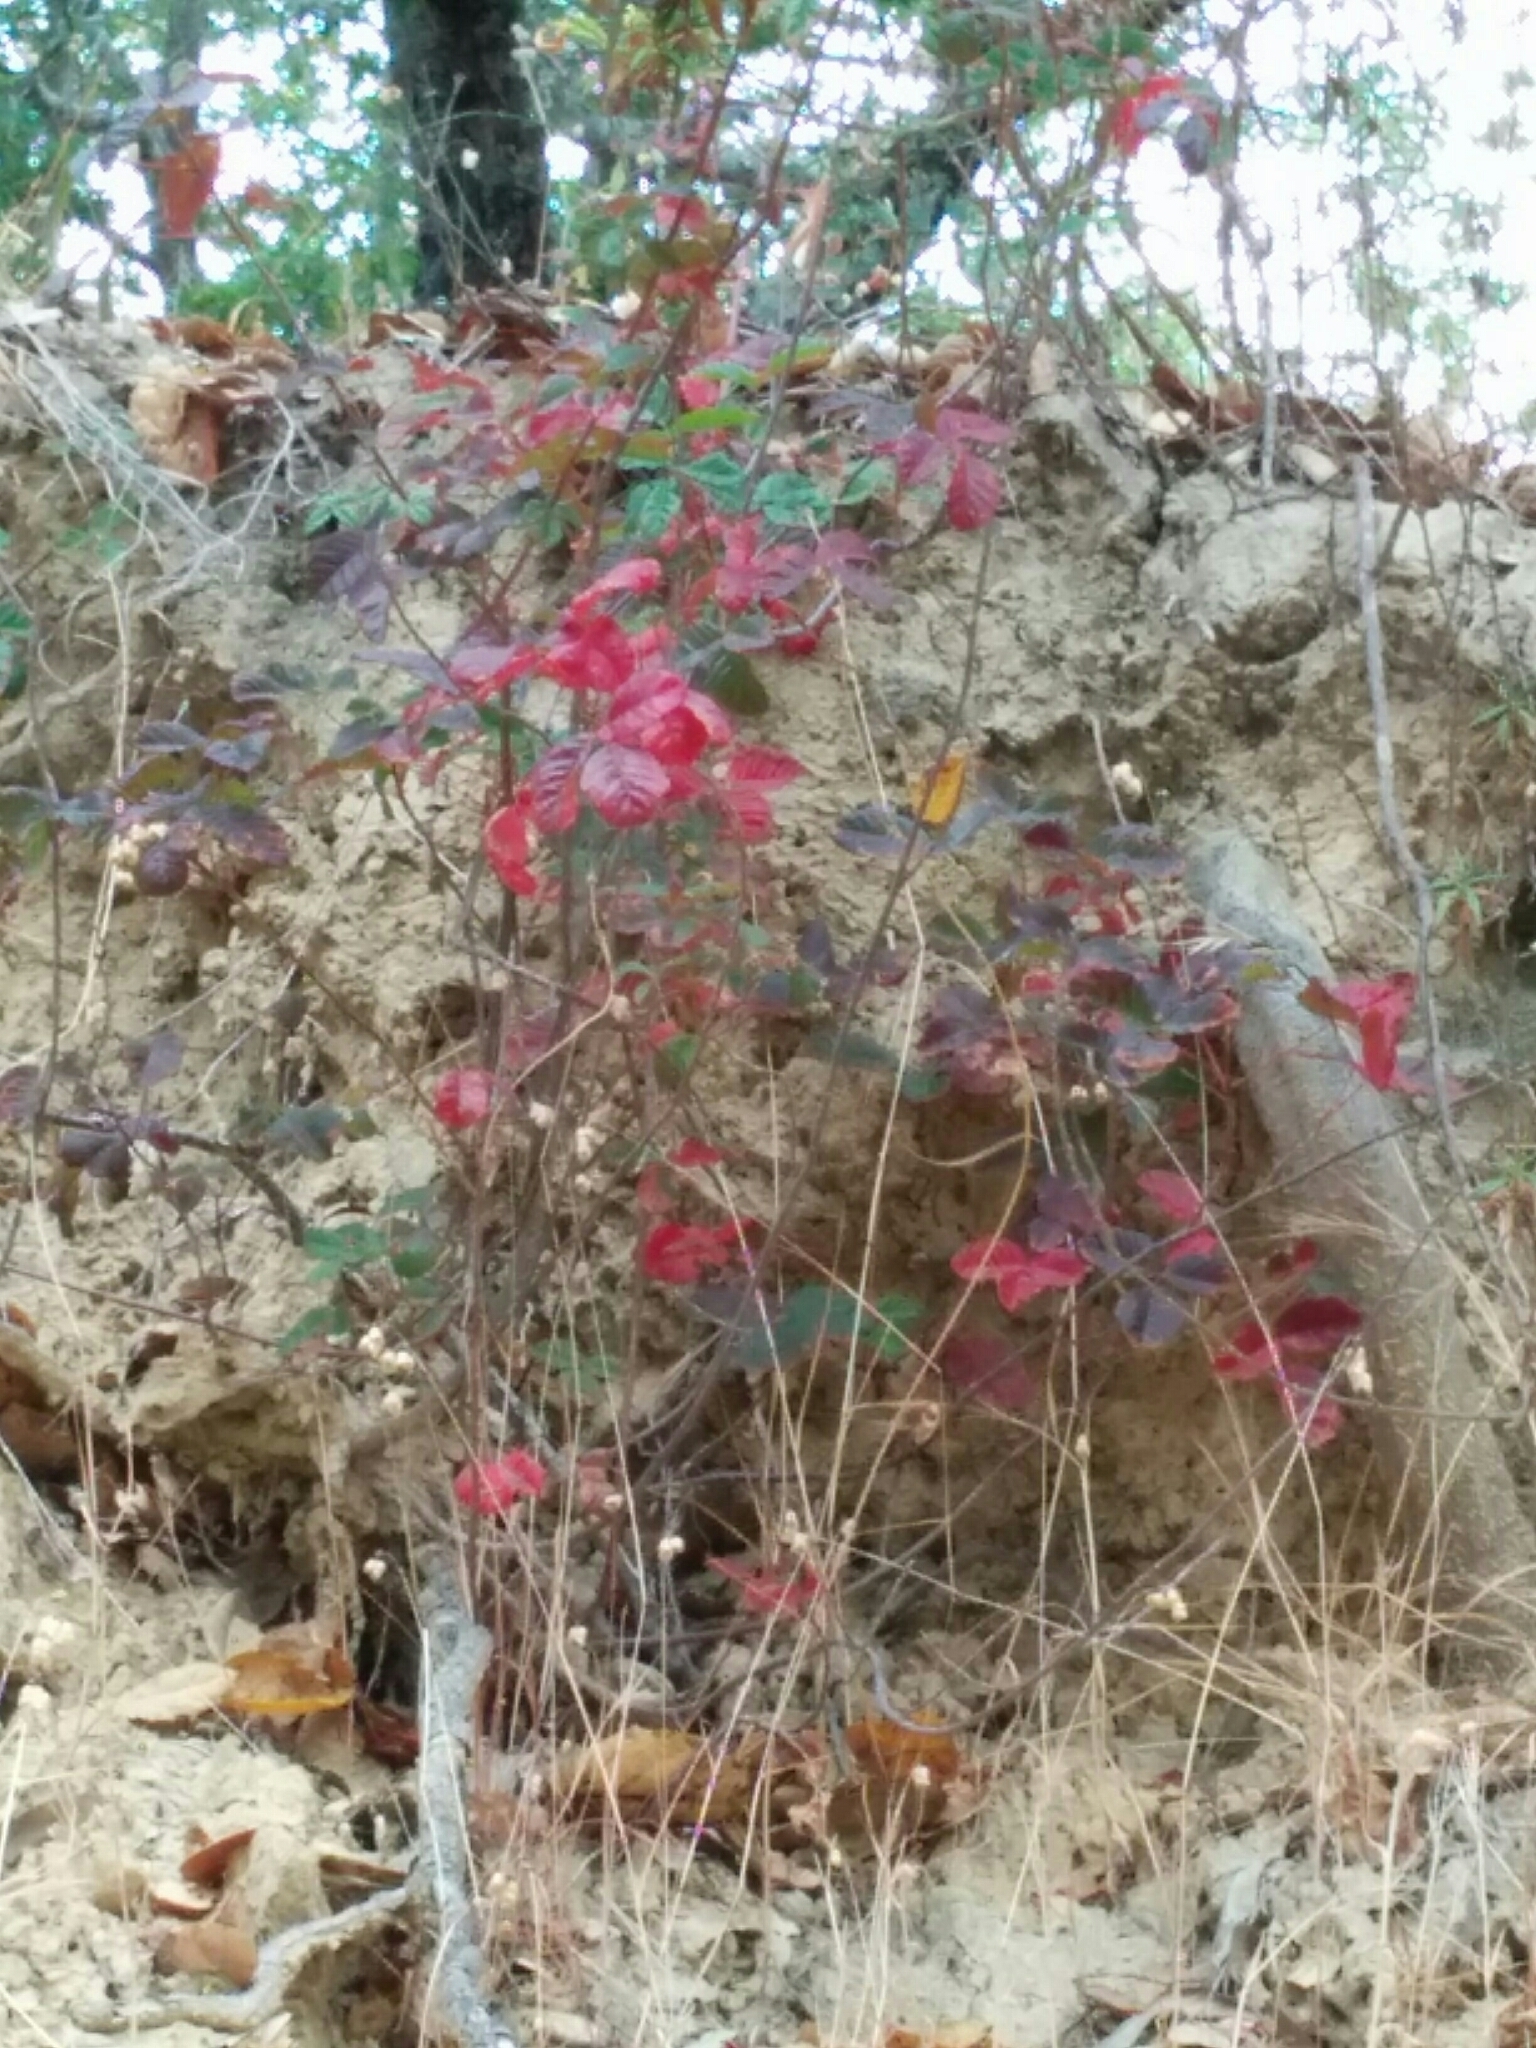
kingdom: Plantae
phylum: Tracheophyta
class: Magnoliopsida
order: Sapindales
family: Anacardiaceae
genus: Toxicodendron
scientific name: Toxicodendron diversilobum
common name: Pacific poison-oak
